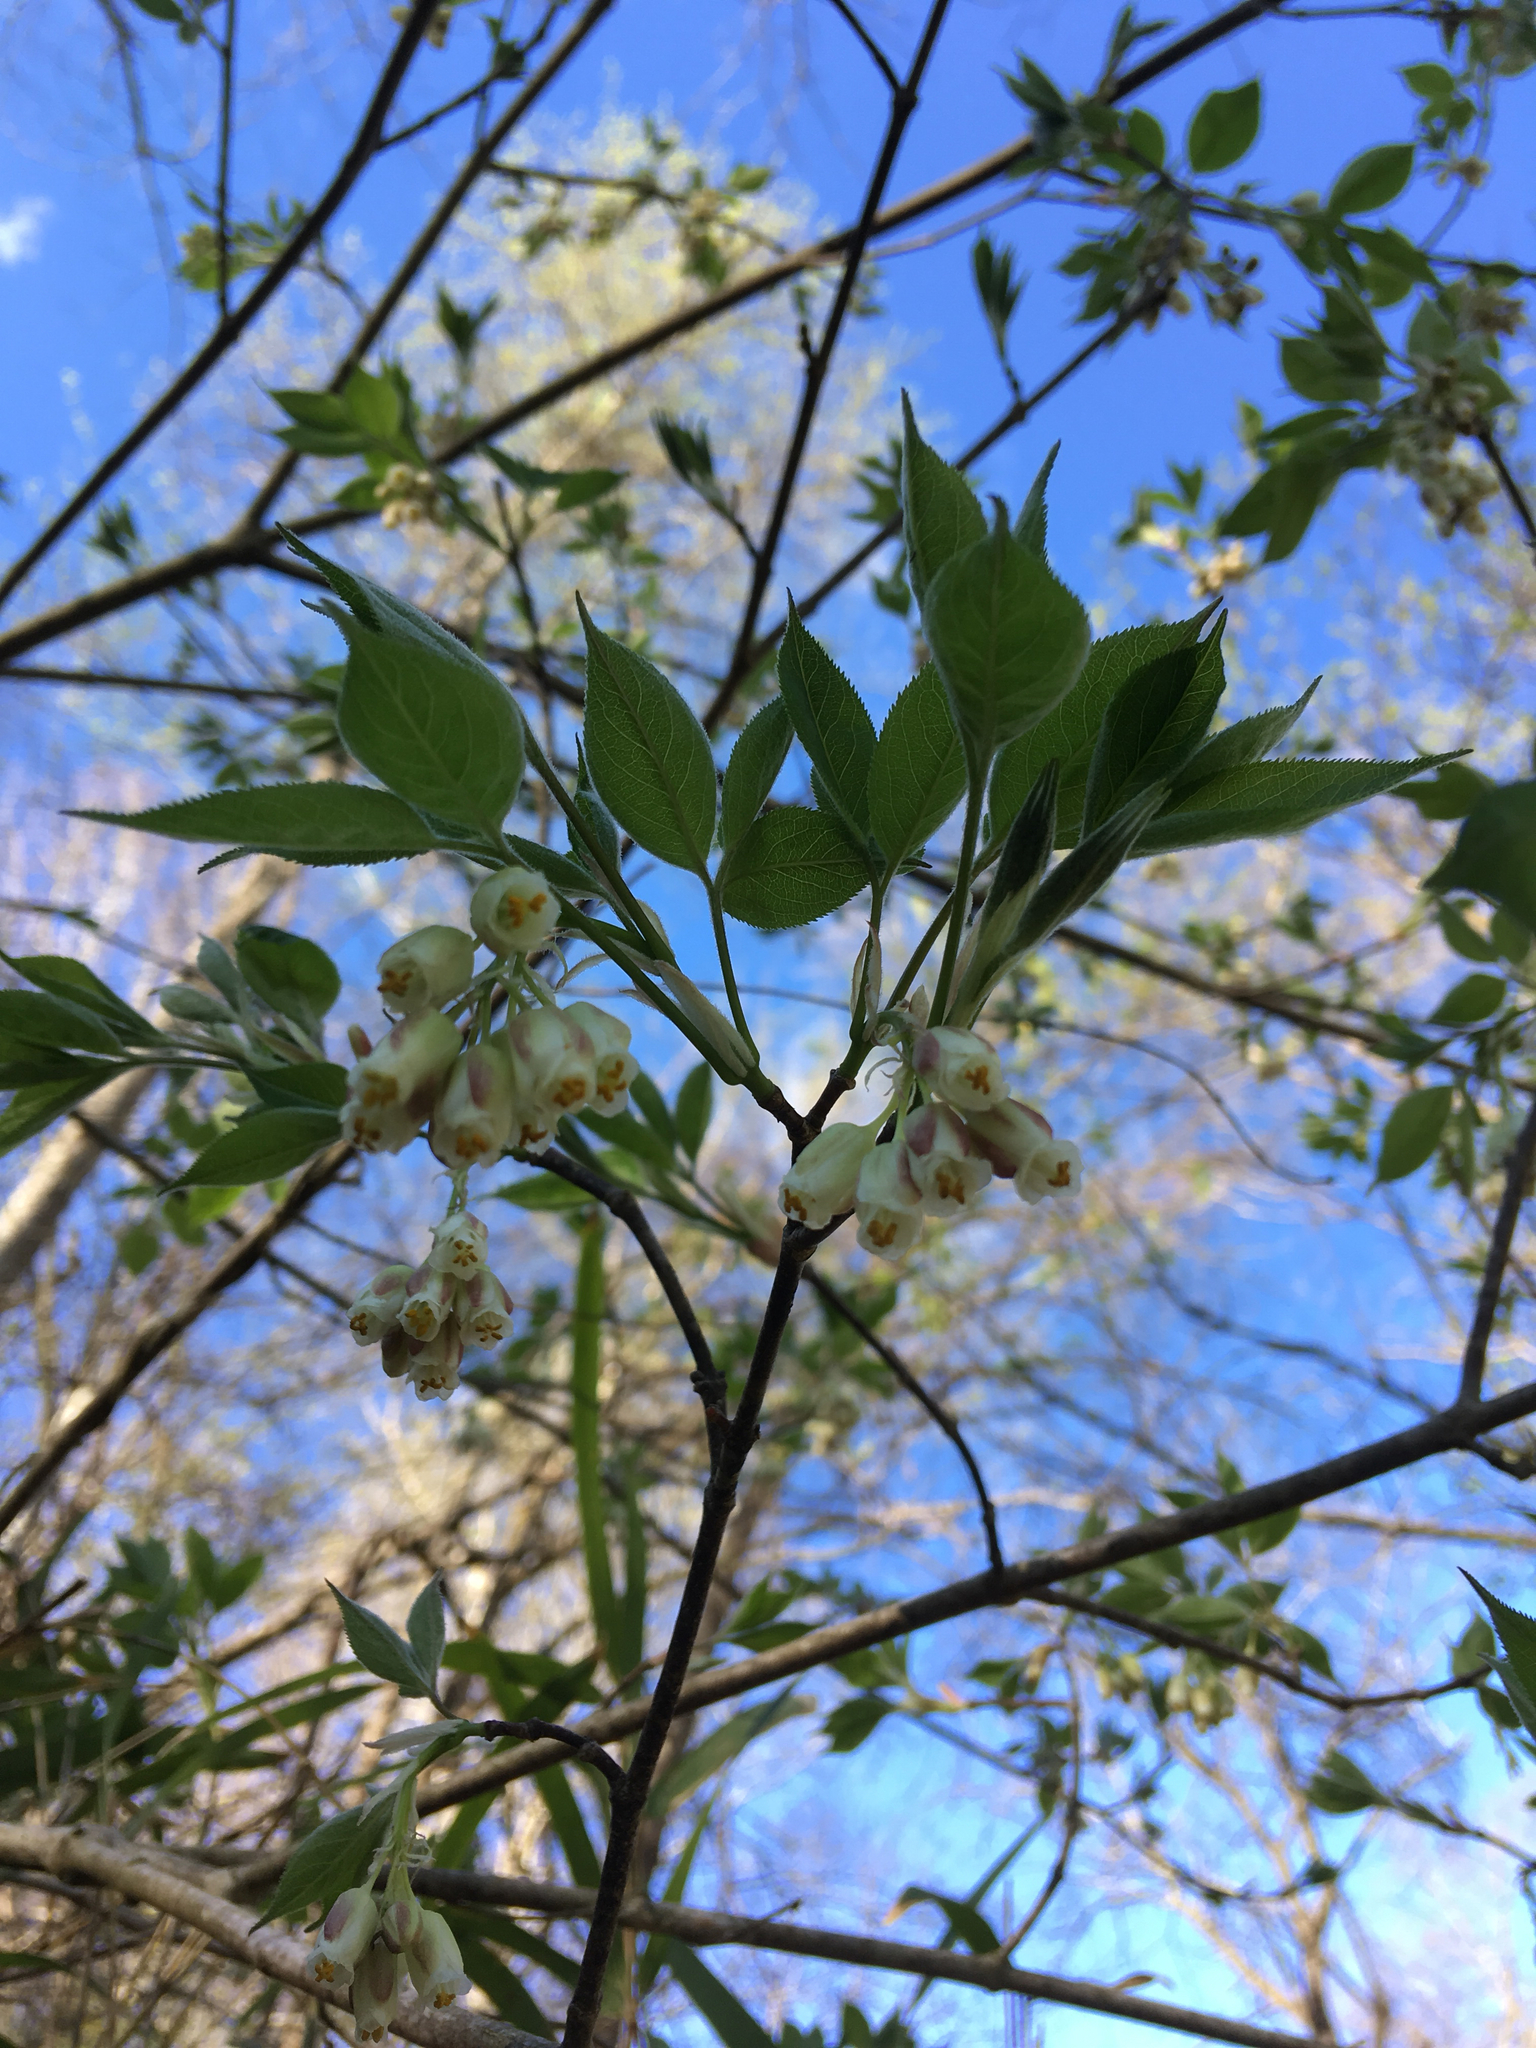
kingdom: Plantae
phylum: Tracheophyta
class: Magnoliopsida
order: Crossosomatales
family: Staphyleaceae
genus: Staphylea
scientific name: Staphylea trifolia
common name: American bladdernut
